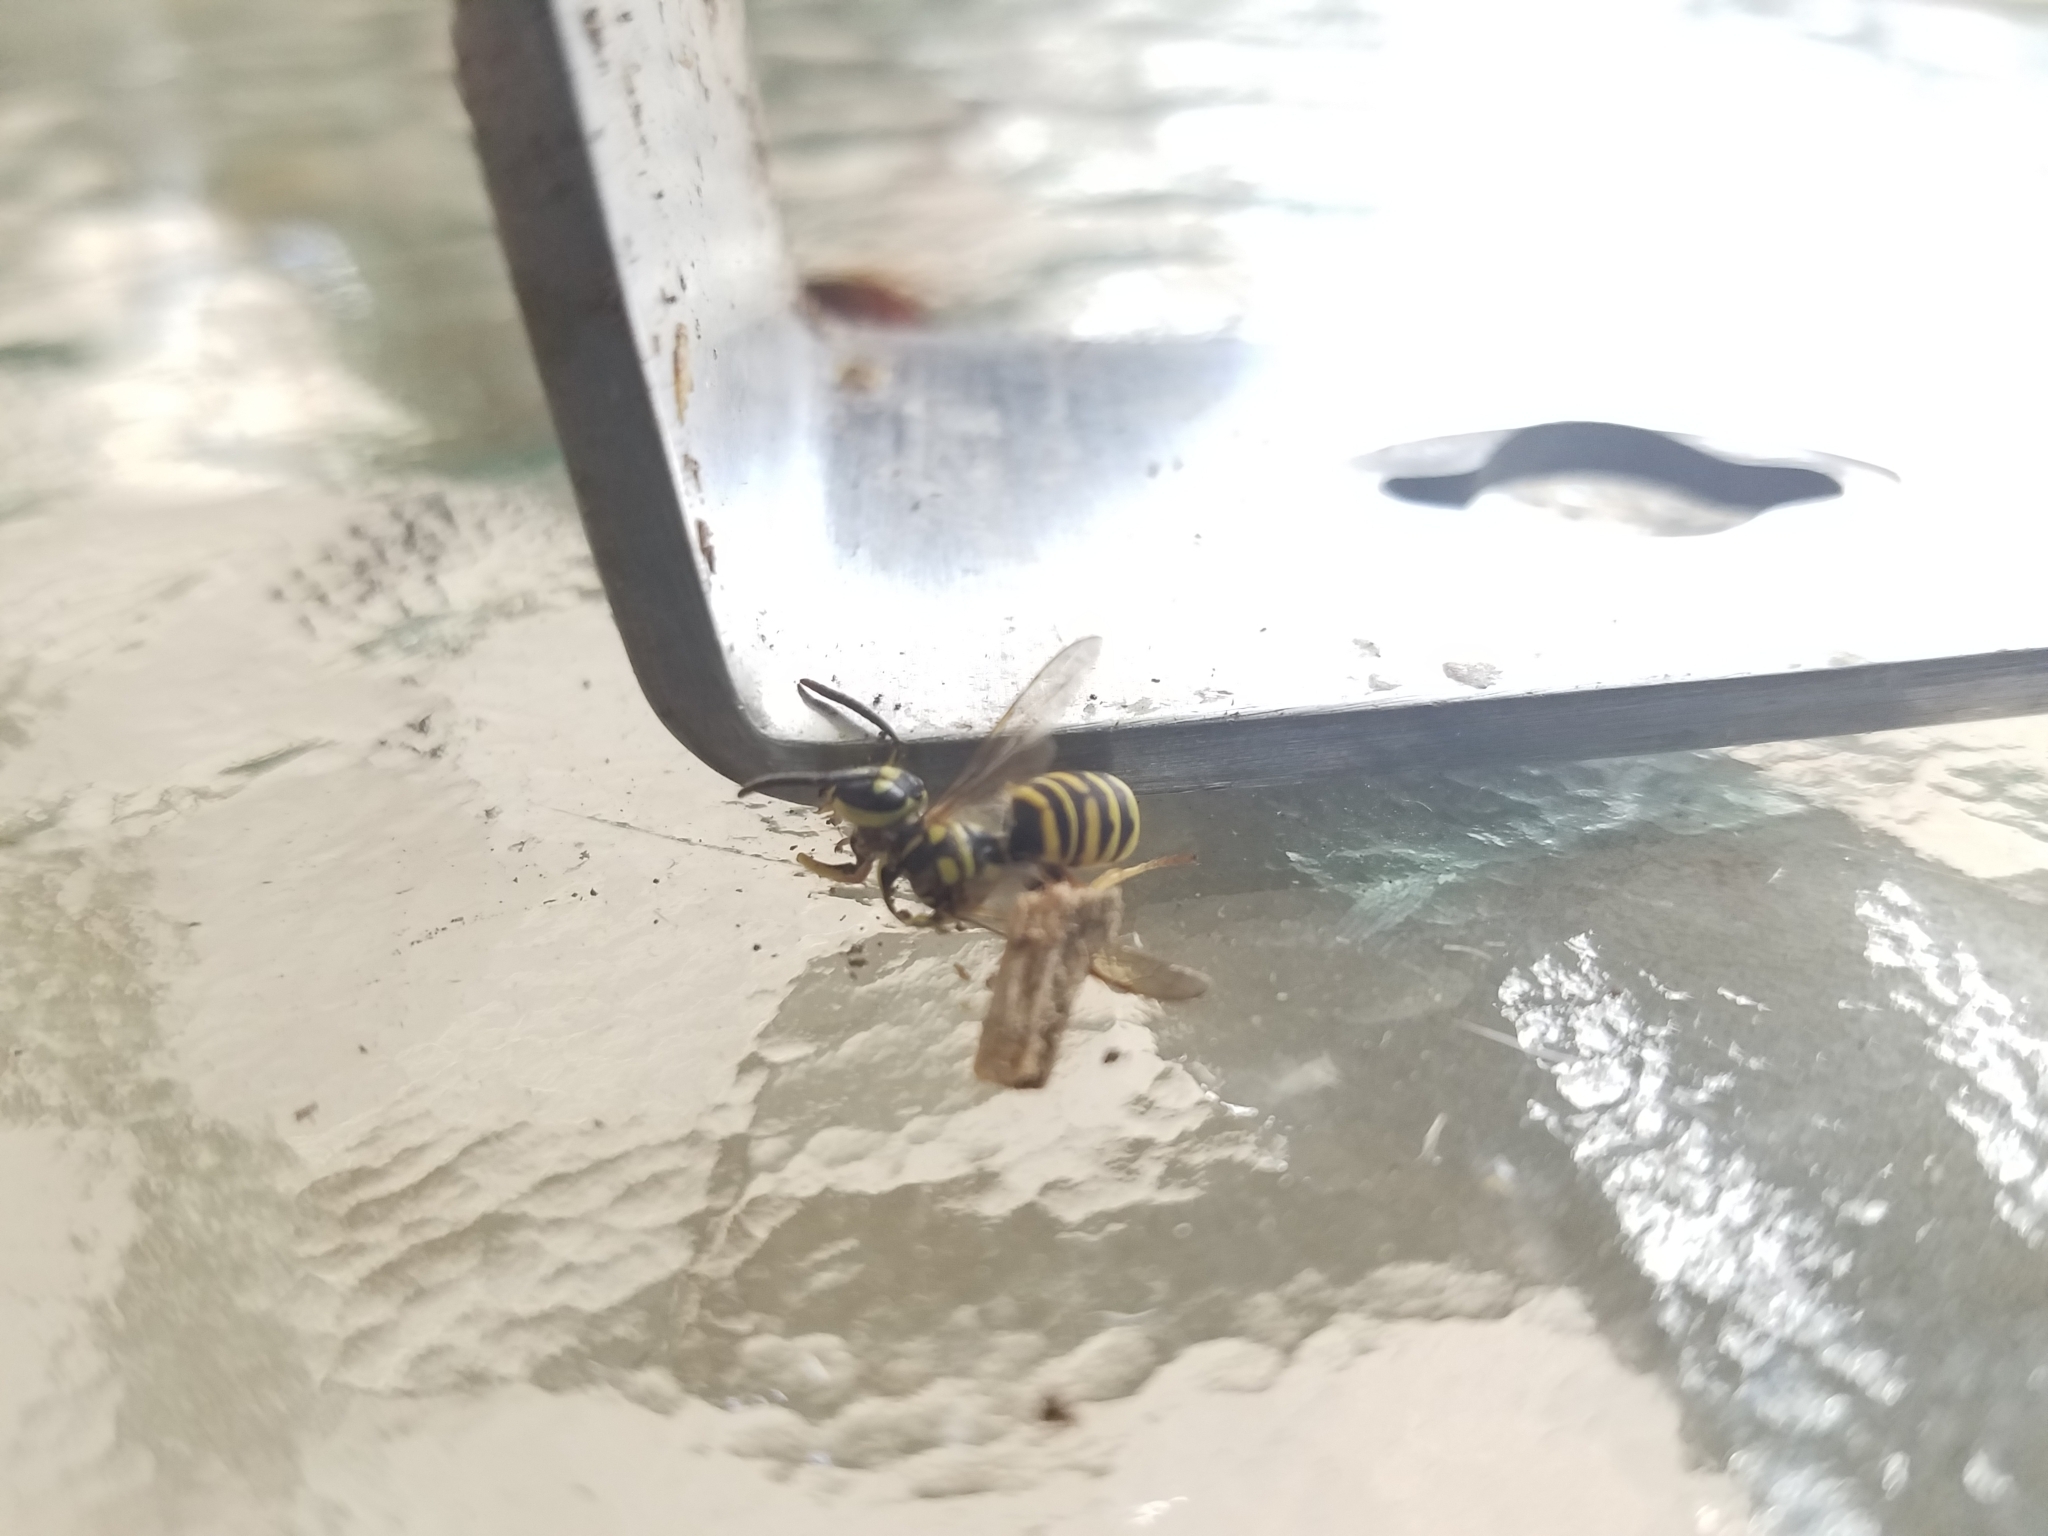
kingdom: Animalia
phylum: Arthropoda
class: Insecta
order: Hymenoptera
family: Vespidae
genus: Vespula
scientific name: Vespula squamosa
